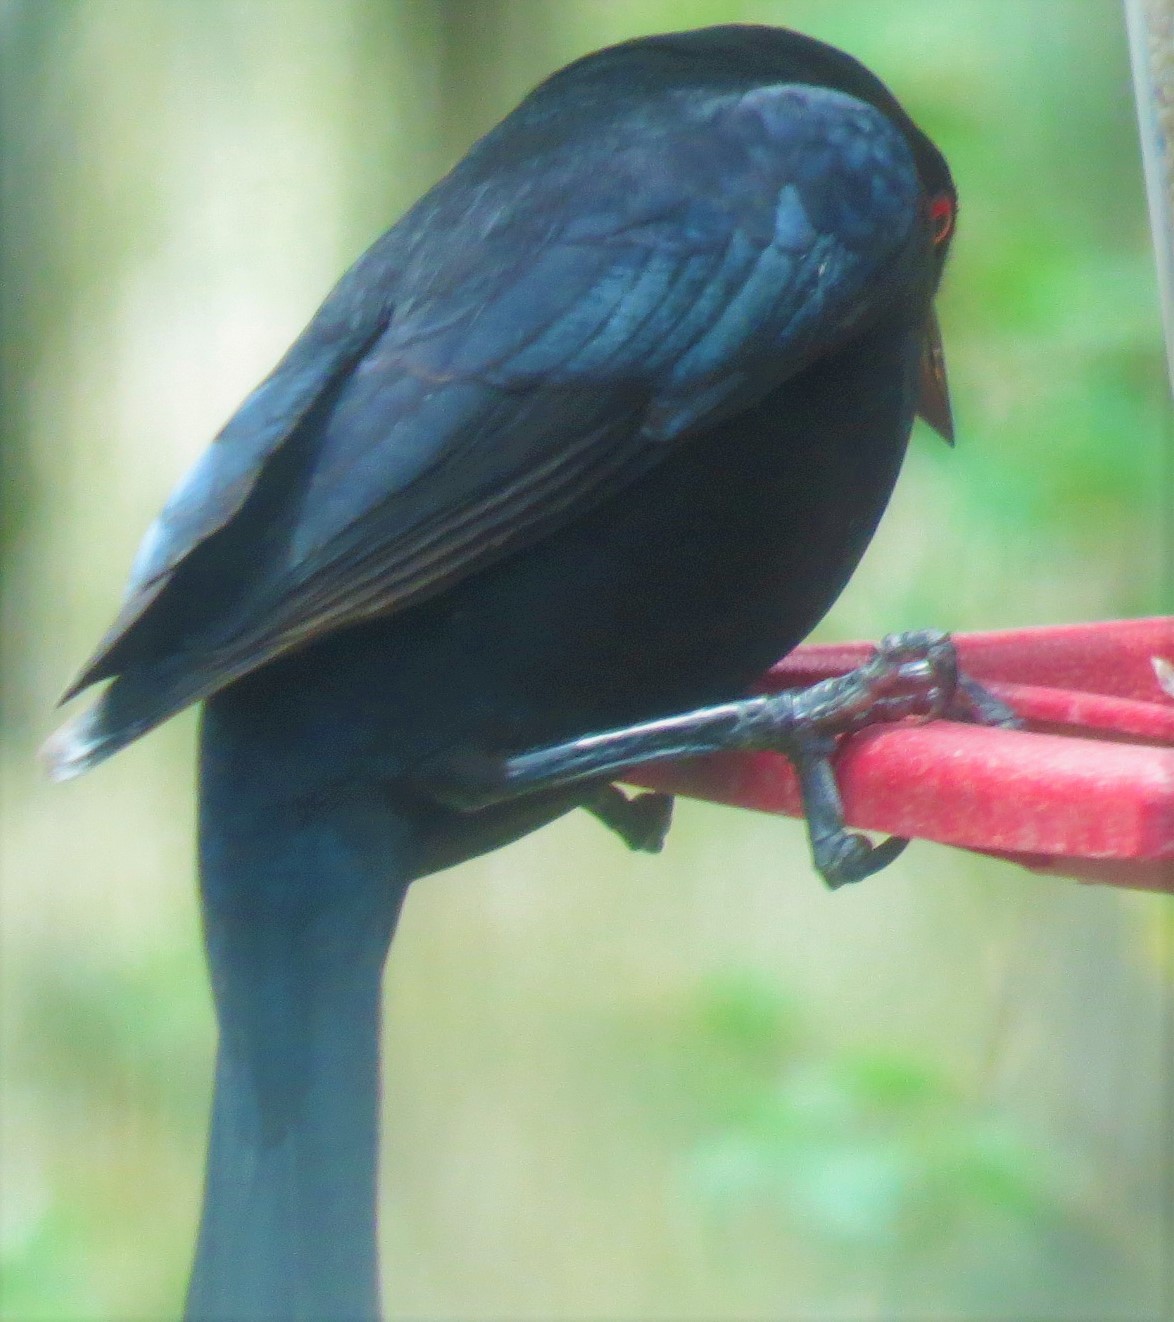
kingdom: Animalia
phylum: Chordata
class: Aves
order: Passeriformes
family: Icteridae
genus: Molothrus
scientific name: Molothrus aeneus
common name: Bronzed cowbird
